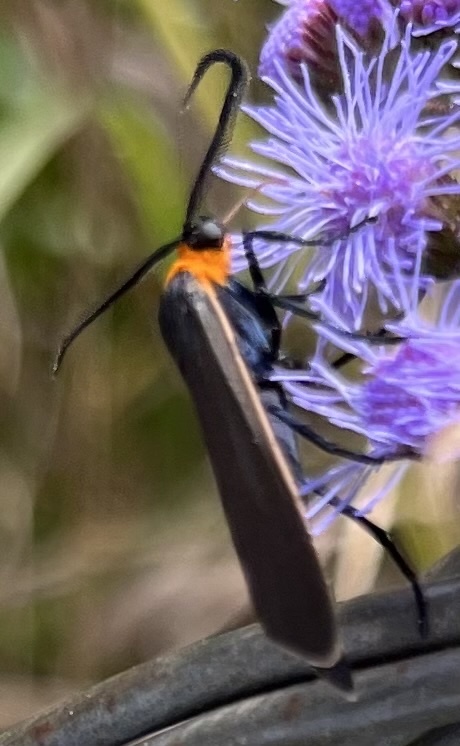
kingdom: Animalia
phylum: Arthropoda
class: Insecta
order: Lepidoptera
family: Erebidae
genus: Cisseps
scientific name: Cisseps fulvicollis
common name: Yellow-collared scape moth
